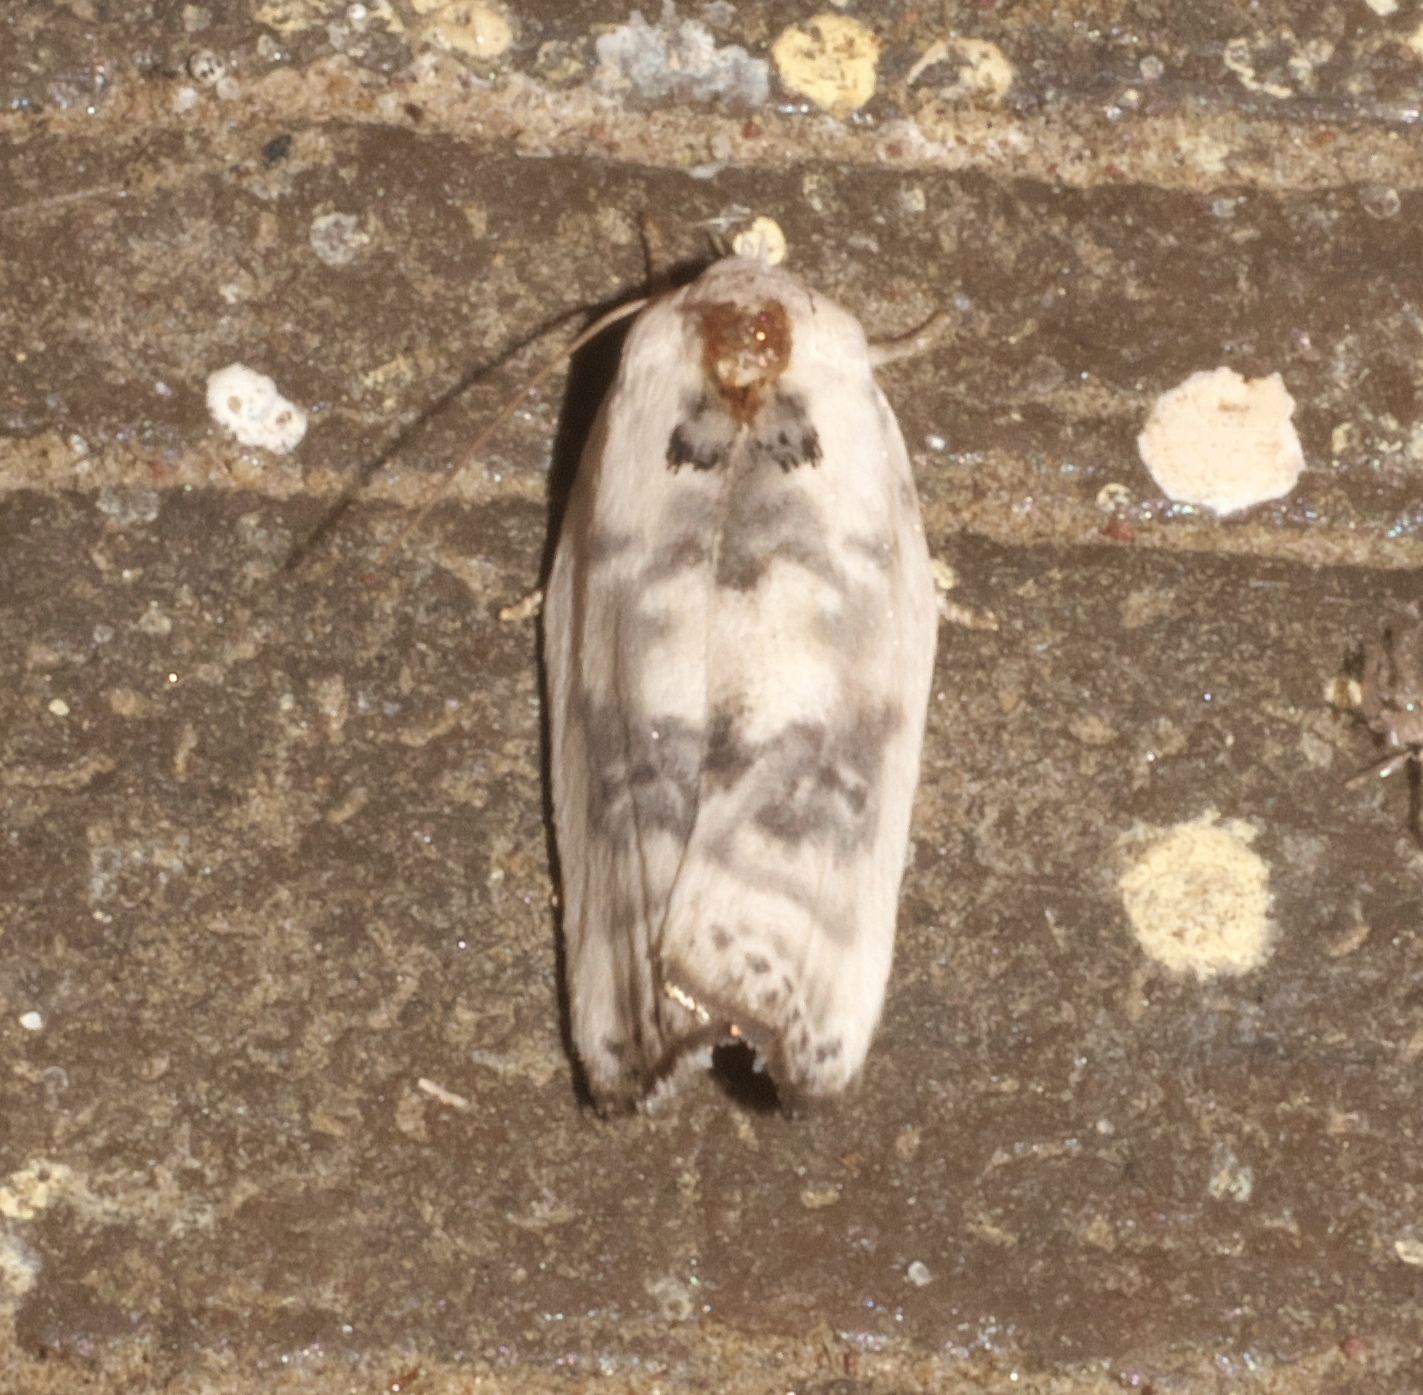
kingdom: Animalia
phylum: Arthropoda
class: Insecta
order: Lepidoptera
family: Depressariidae
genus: Antaeotricha
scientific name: Antaeotricha leucillana
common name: Pale gray bird-dropping moth
